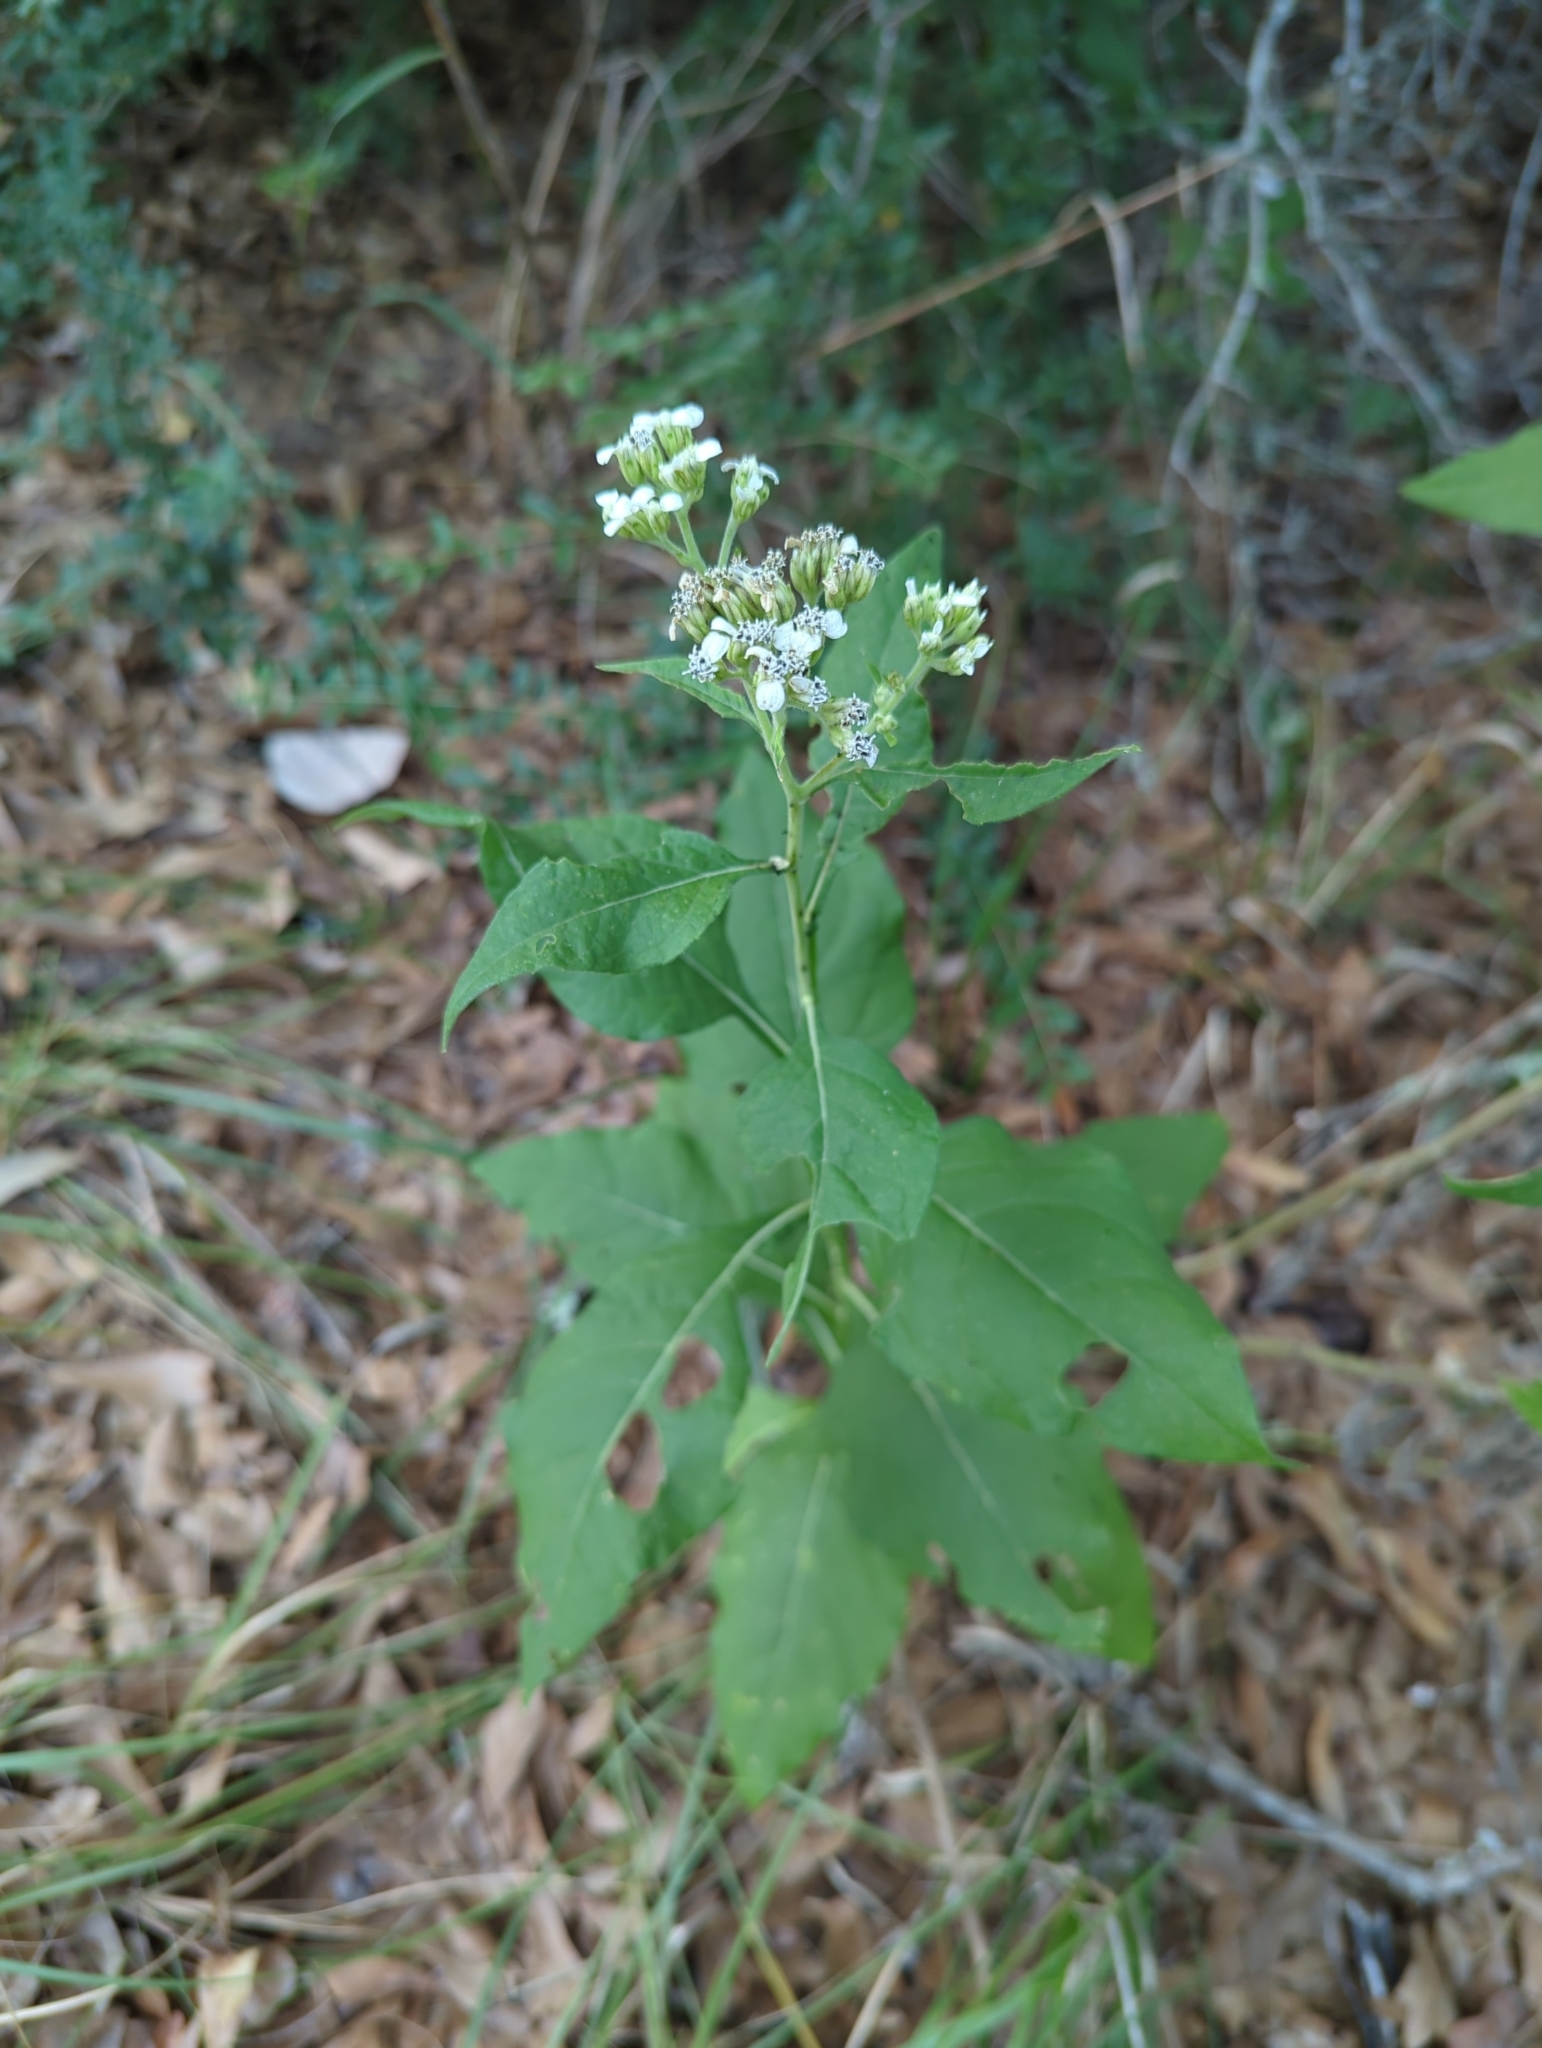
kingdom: Plantae
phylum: Tracheophyta
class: Magnoliopsida
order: Asterales
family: Asteraceae
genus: Verbesina
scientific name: Verbesina virginica
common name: Frostweed
